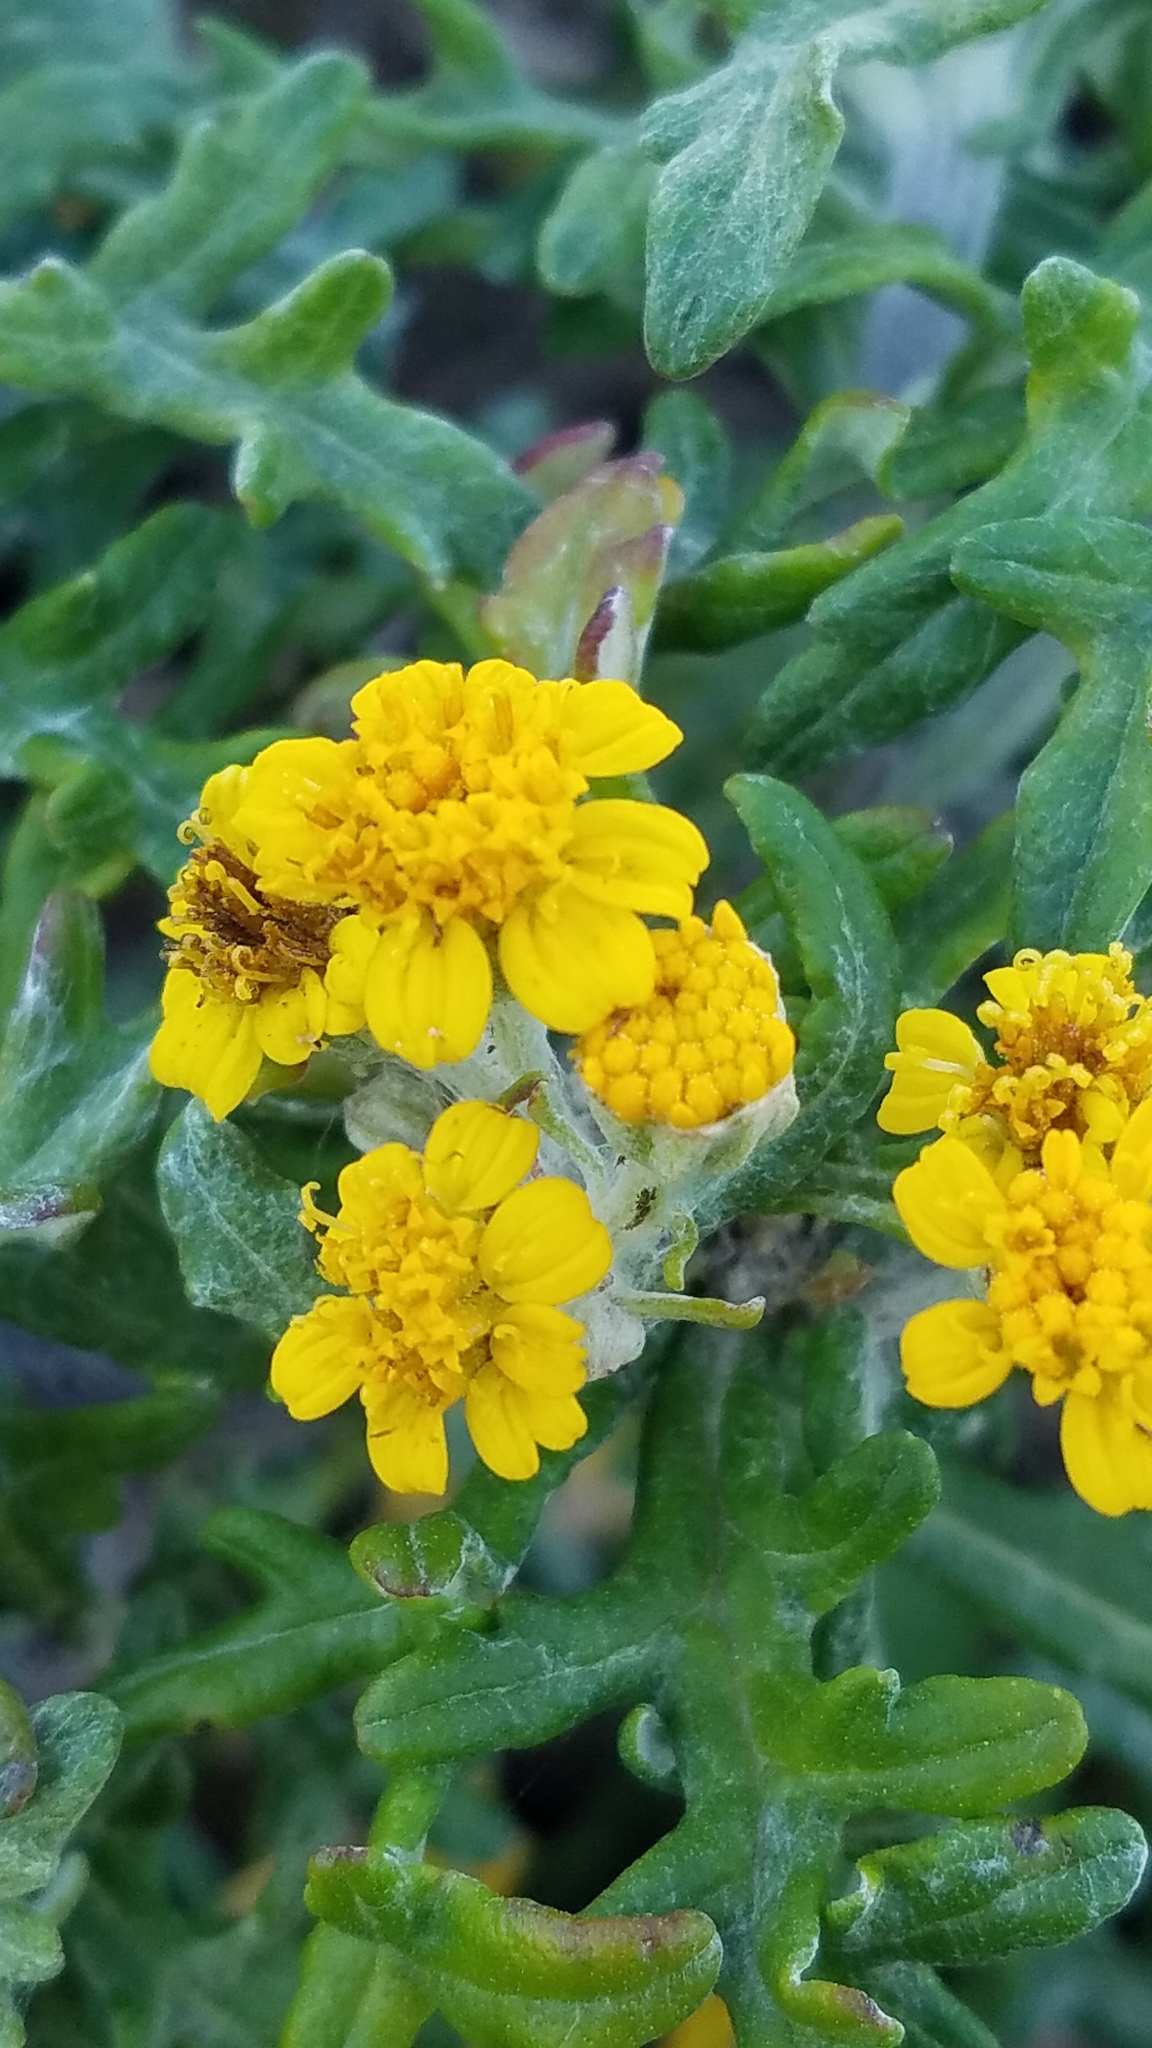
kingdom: Plantae
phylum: Tracheophyta
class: Magnoliopsida
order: Asterales
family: Asteraceae
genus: Eriophyllum
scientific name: Eriophyllum staechadifolium
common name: Lizardtail
